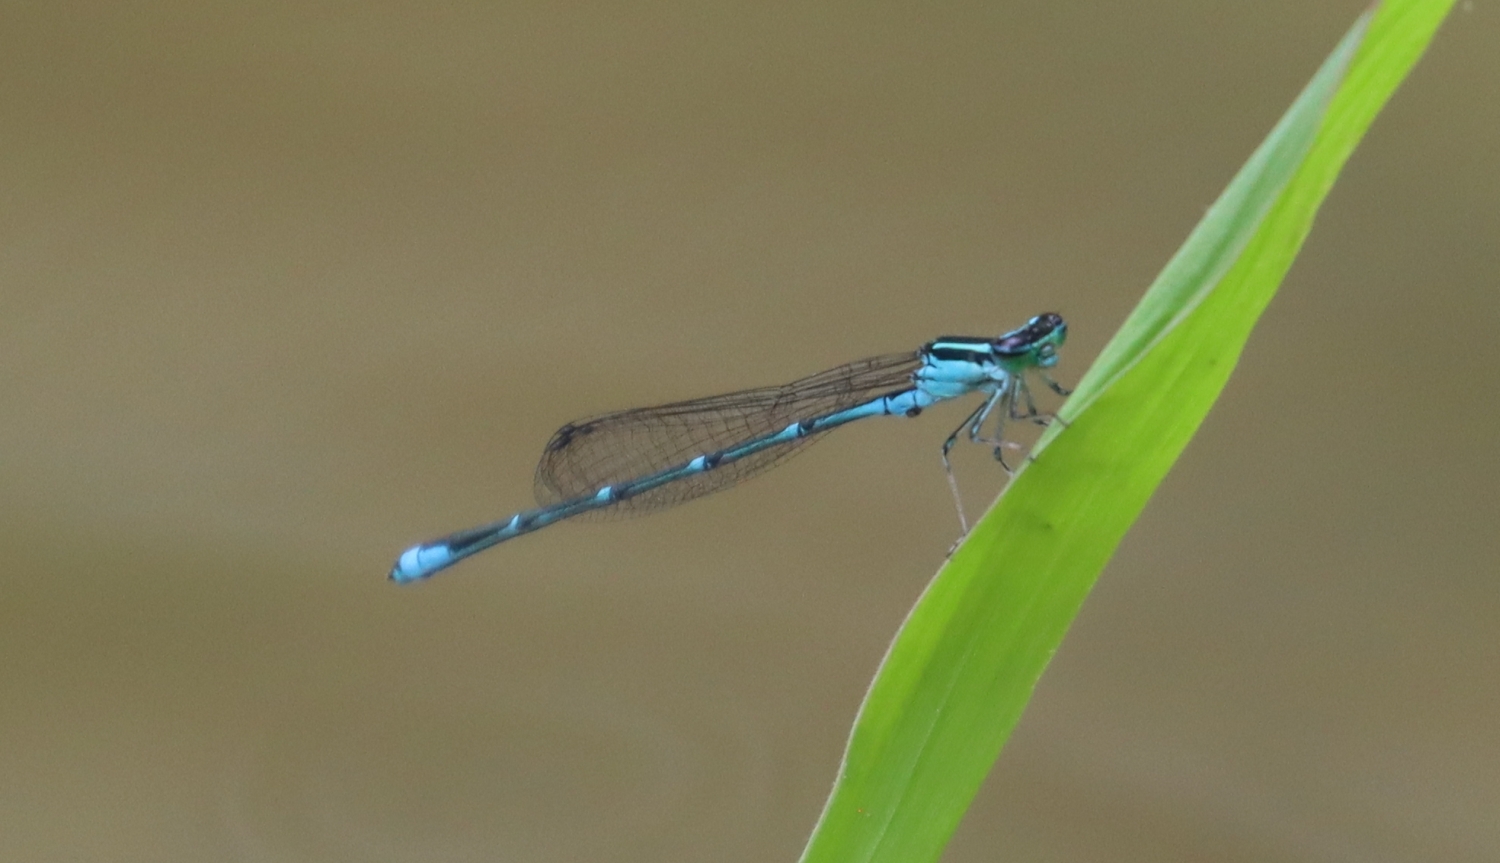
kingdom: Animalia
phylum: Arthropoda
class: Insecta
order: Odonata
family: Coenagrionidae
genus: Enallagma
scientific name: Enallagma exsulans
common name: Stream bluet
